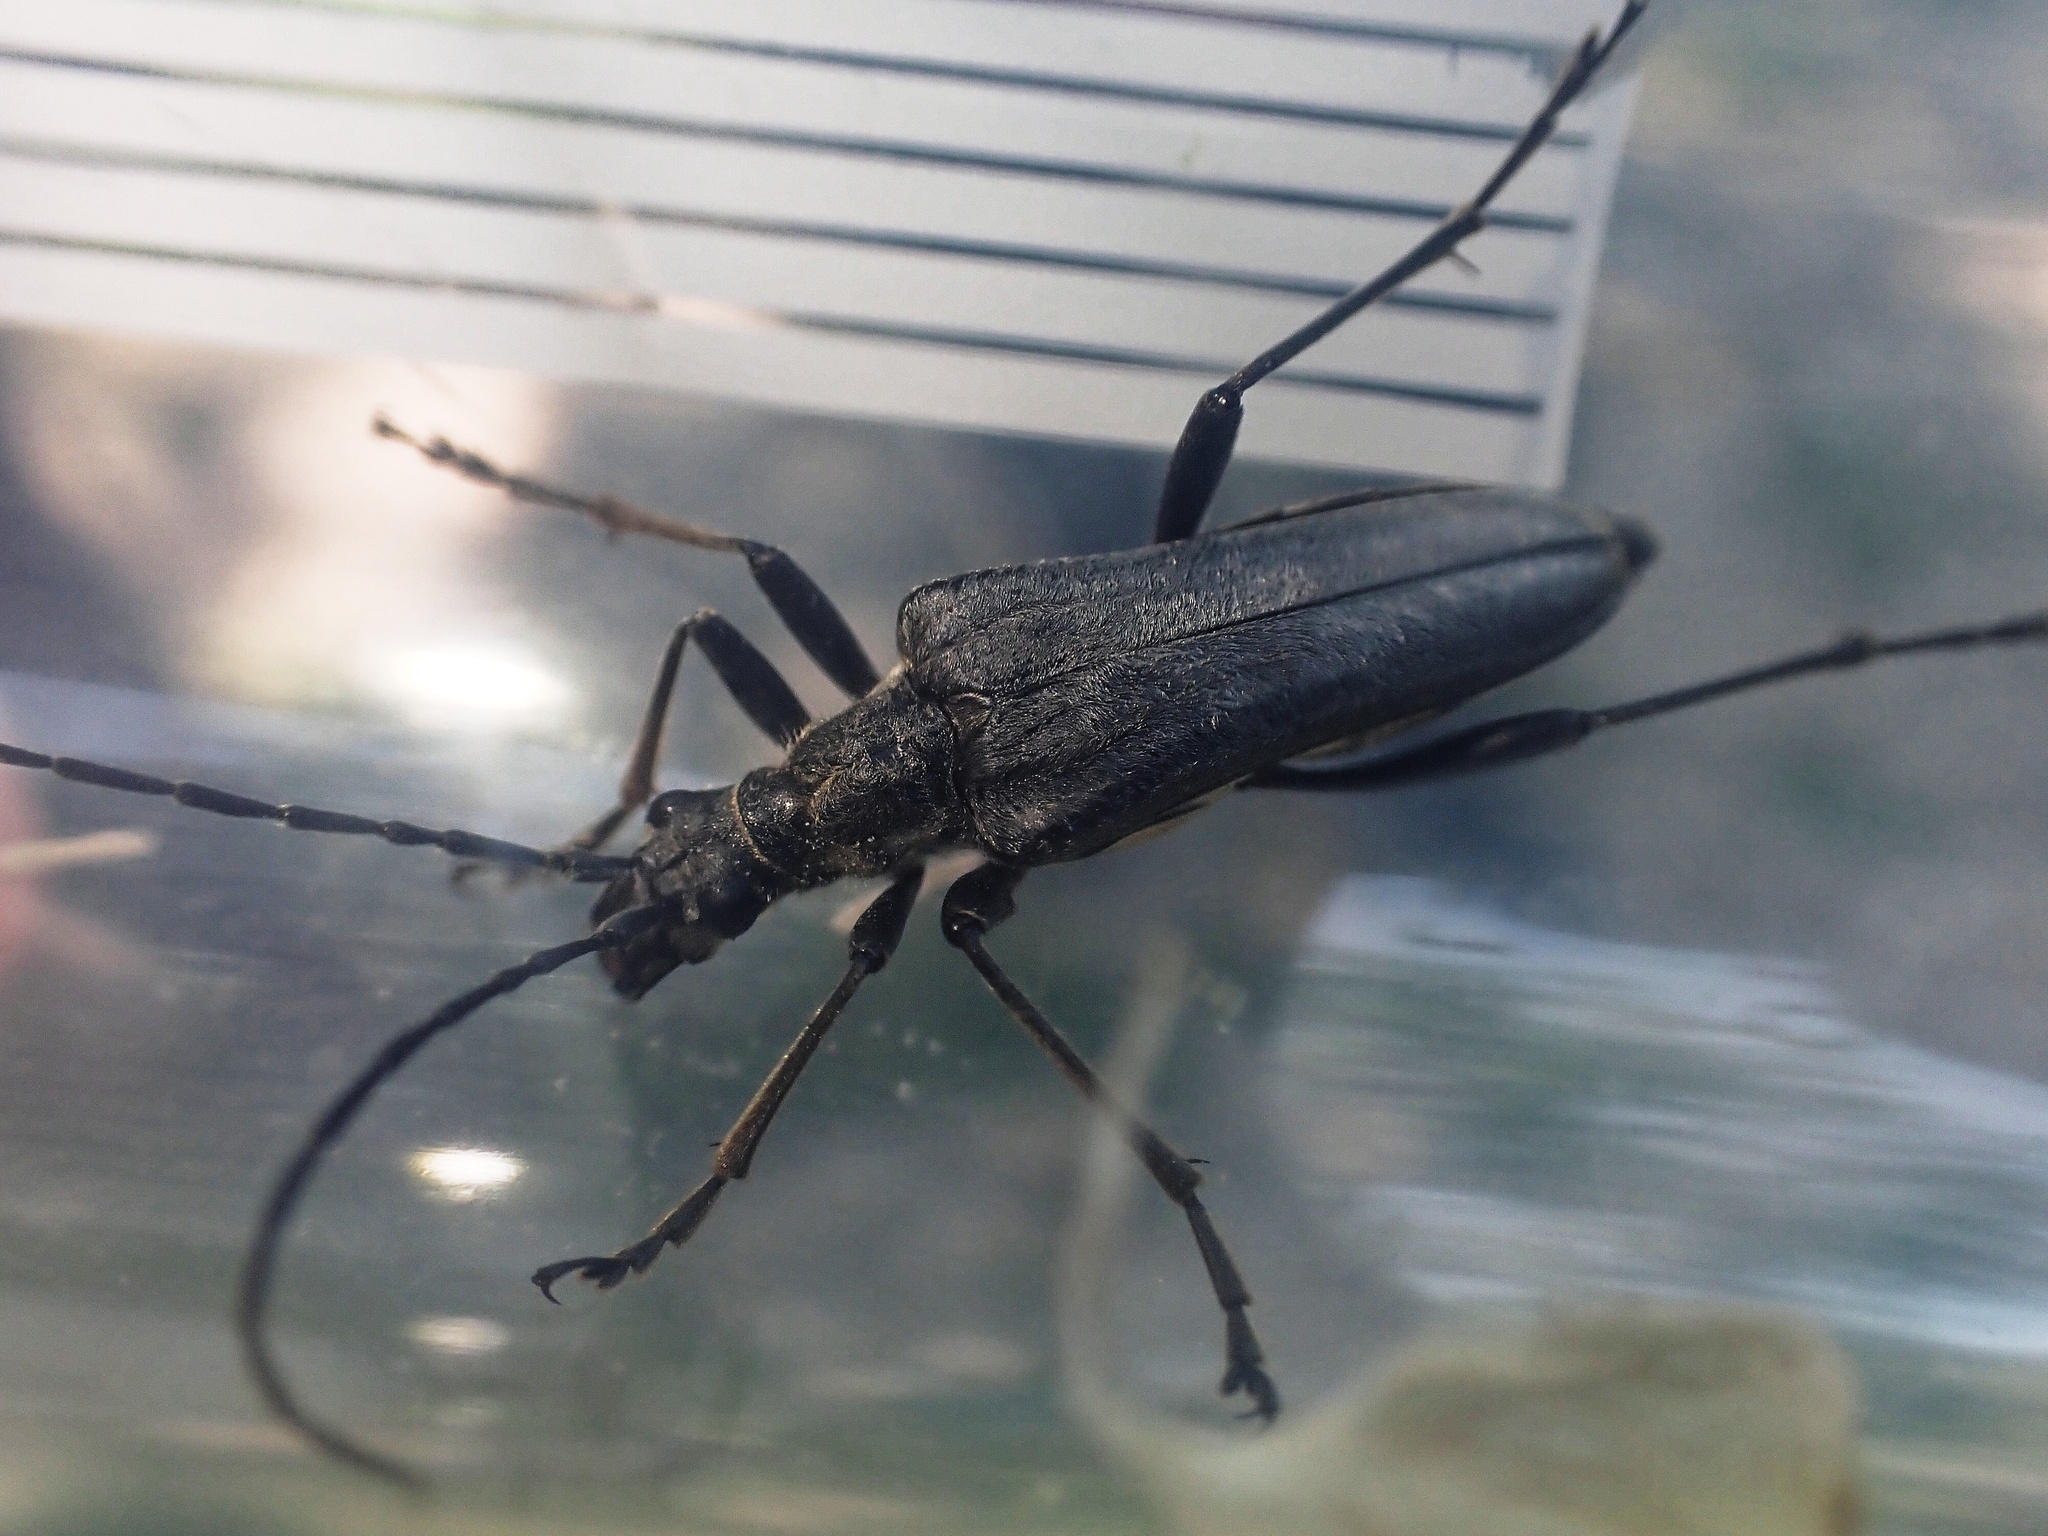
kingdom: Animalia
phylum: Arthropoda
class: Insecta
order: Coleoptera
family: Cerambycidae
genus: Stenocorus
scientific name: Stenocorus meridianus
